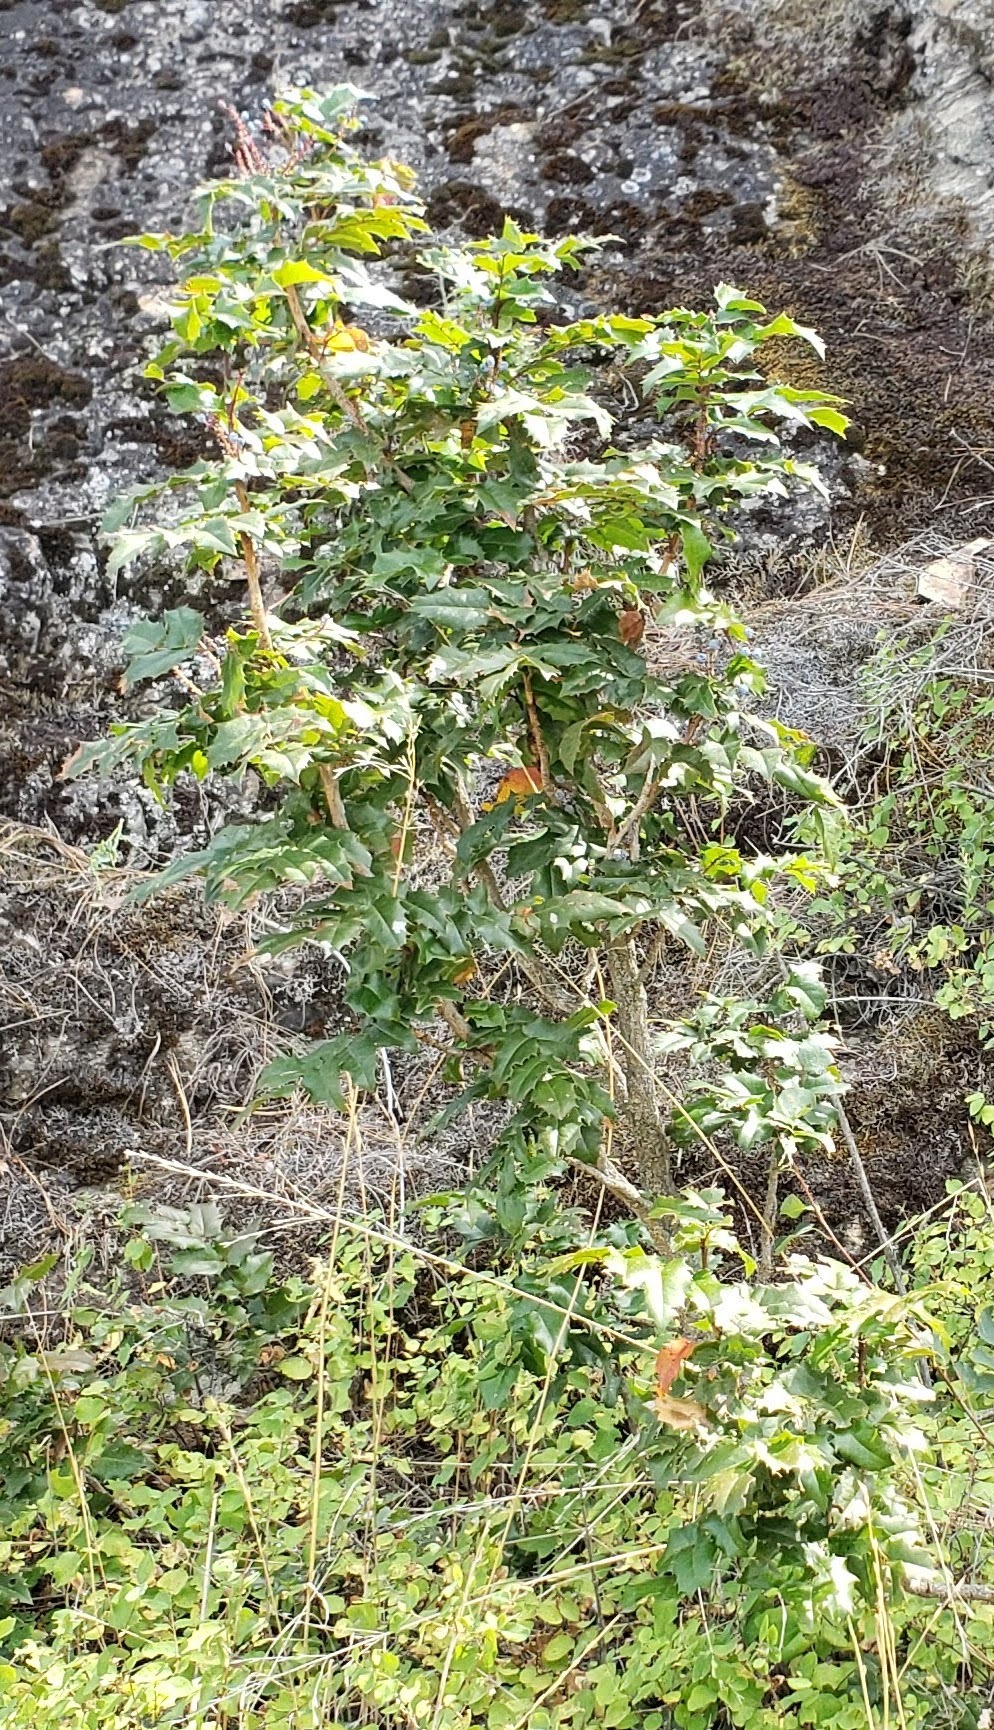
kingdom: Plantae
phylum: Tracheophyta
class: Magnoliopsida
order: Ranunculales
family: Berberidaceae
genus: Mahonia
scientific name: Mahonia aquifolium
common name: Oregon-grape
